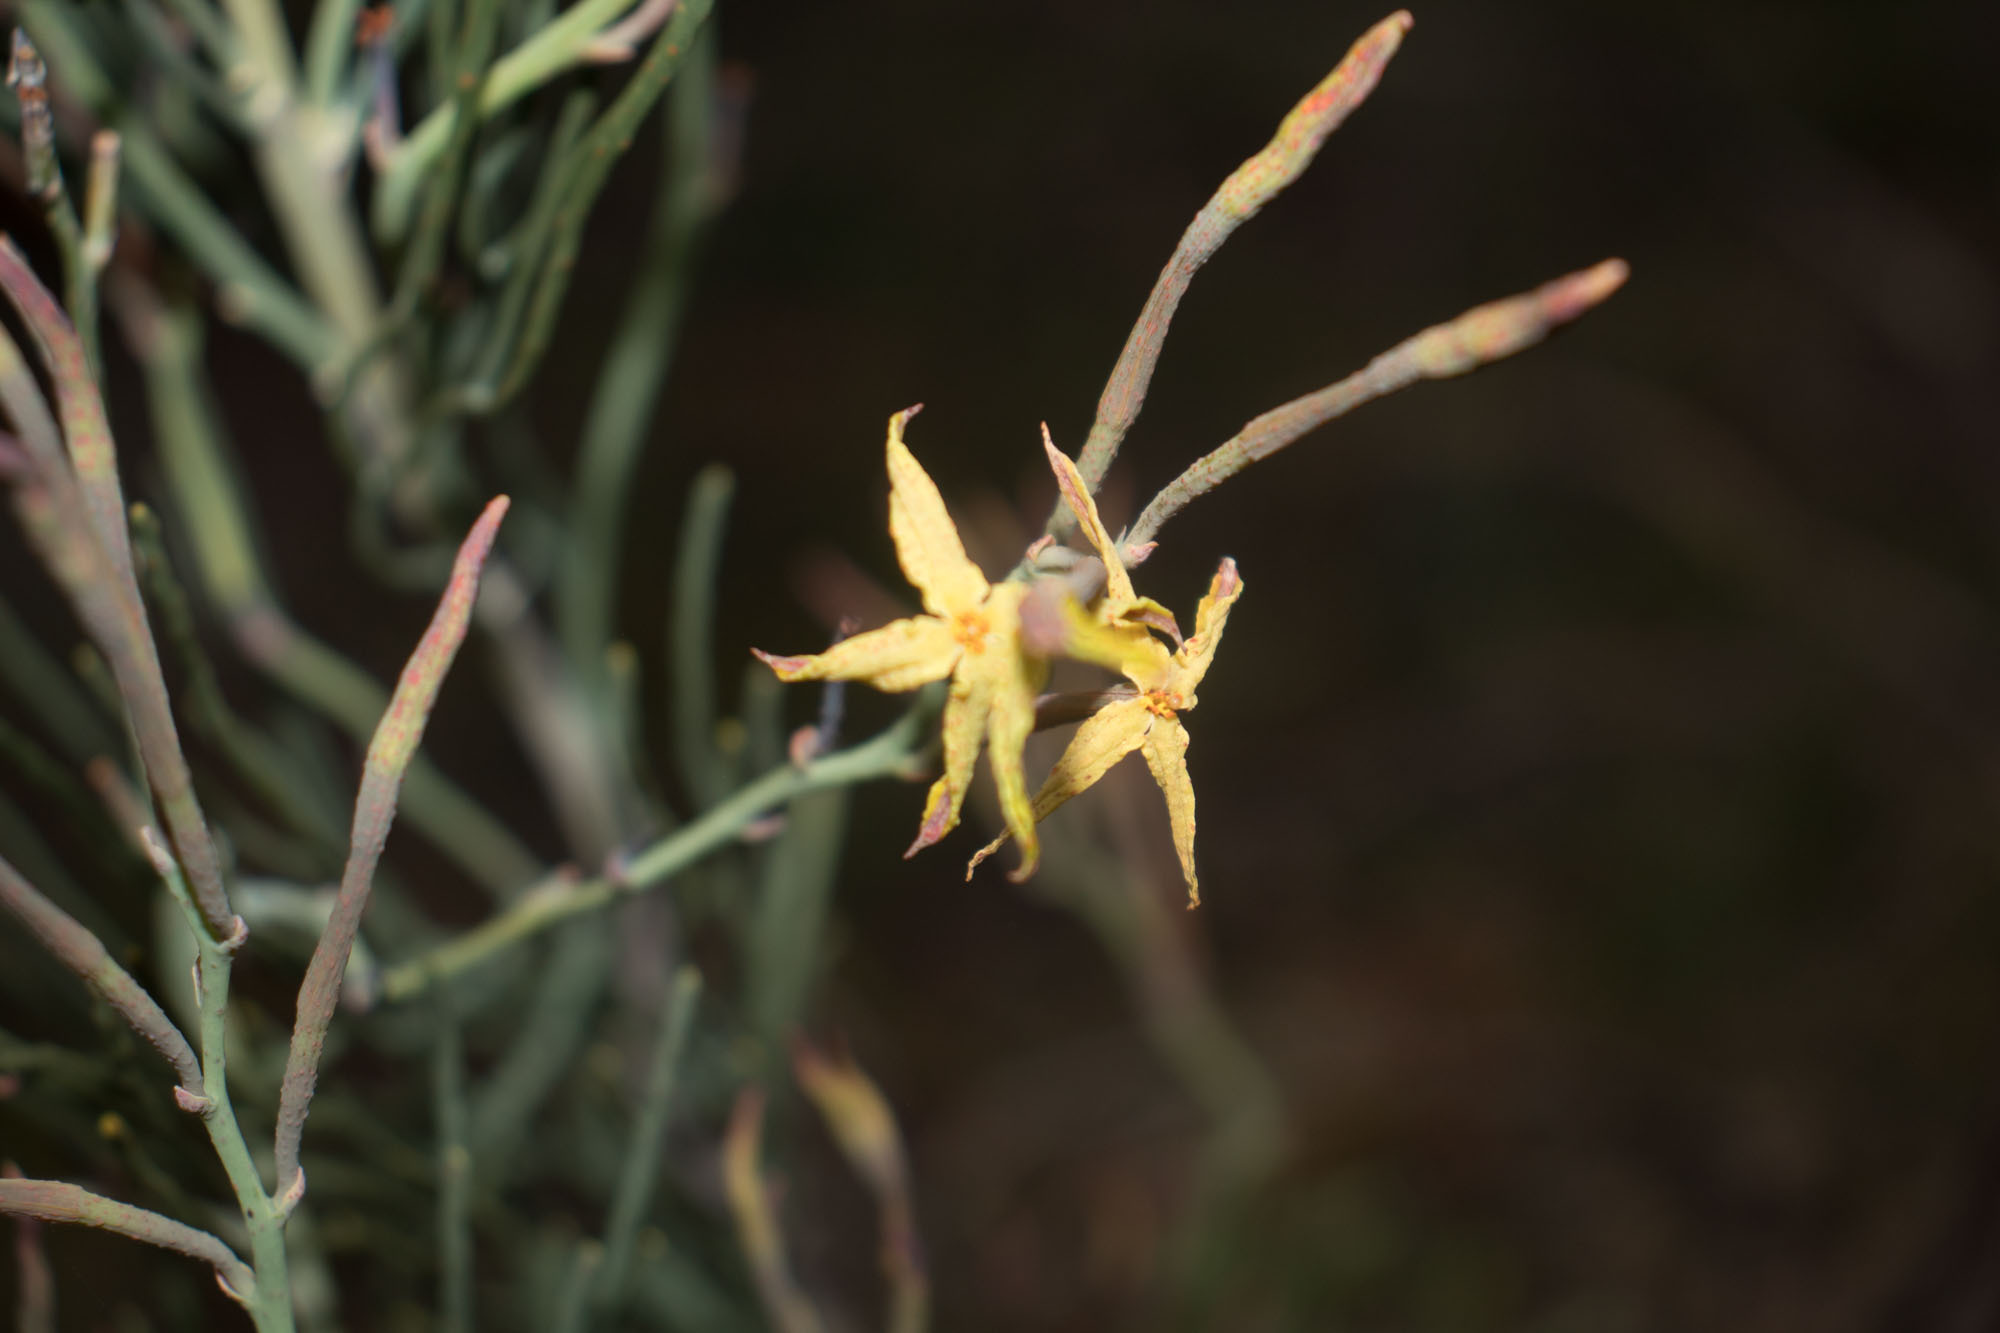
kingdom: Plantae
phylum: Tracheophyta
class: Magnoliopsida
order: Proteales
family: Proteaceae
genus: Franklandia
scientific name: Franklandia fucifolia
